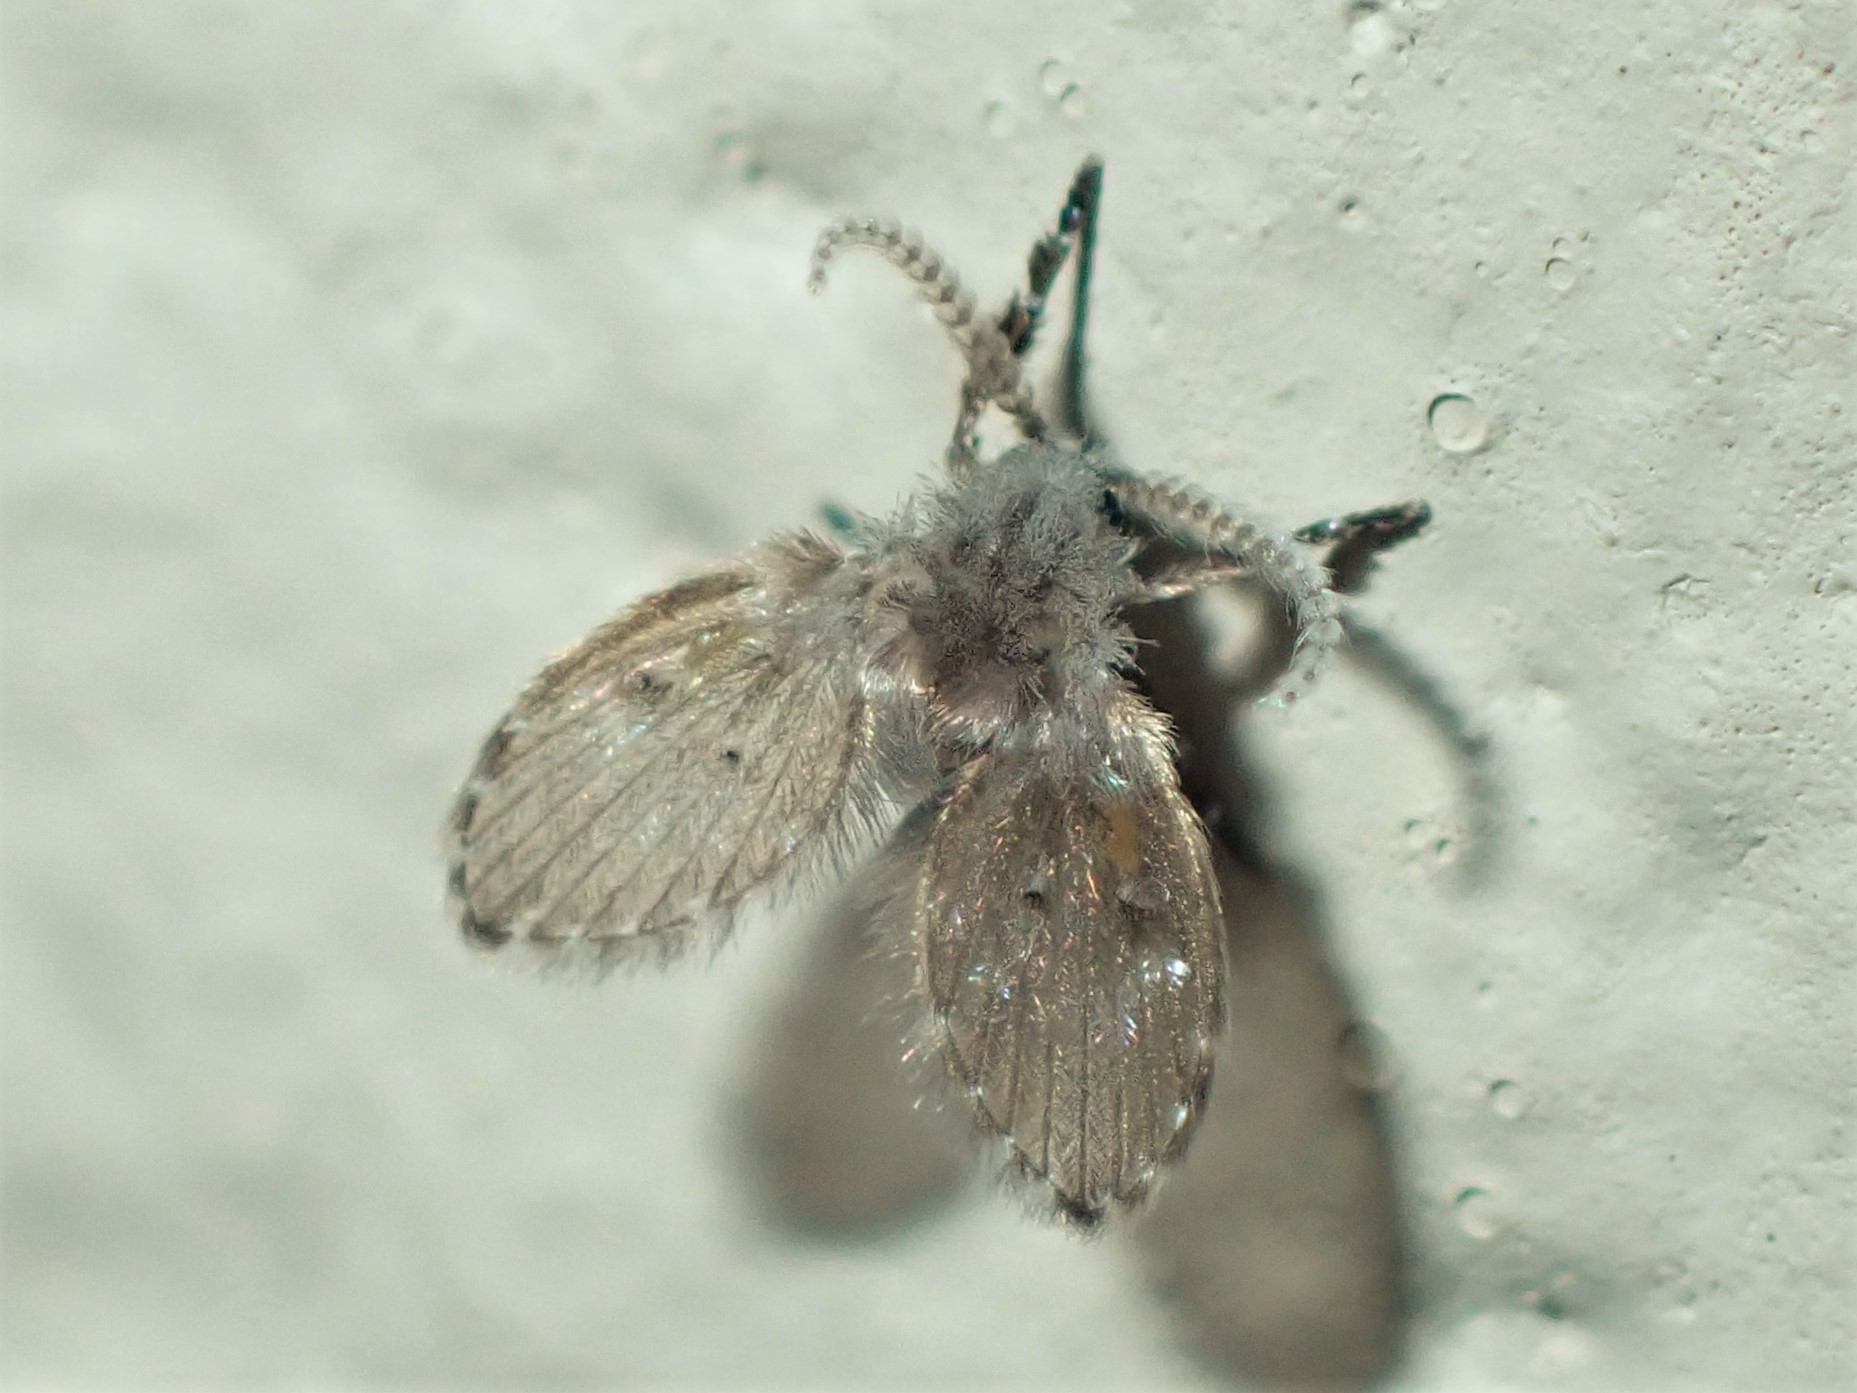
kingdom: Animalia
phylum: Arthropoda
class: Insecta
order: Diptera
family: Psychodidae
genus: Clogmia
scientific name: Clogmia albipunctatus
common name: White-spotted moth fly
